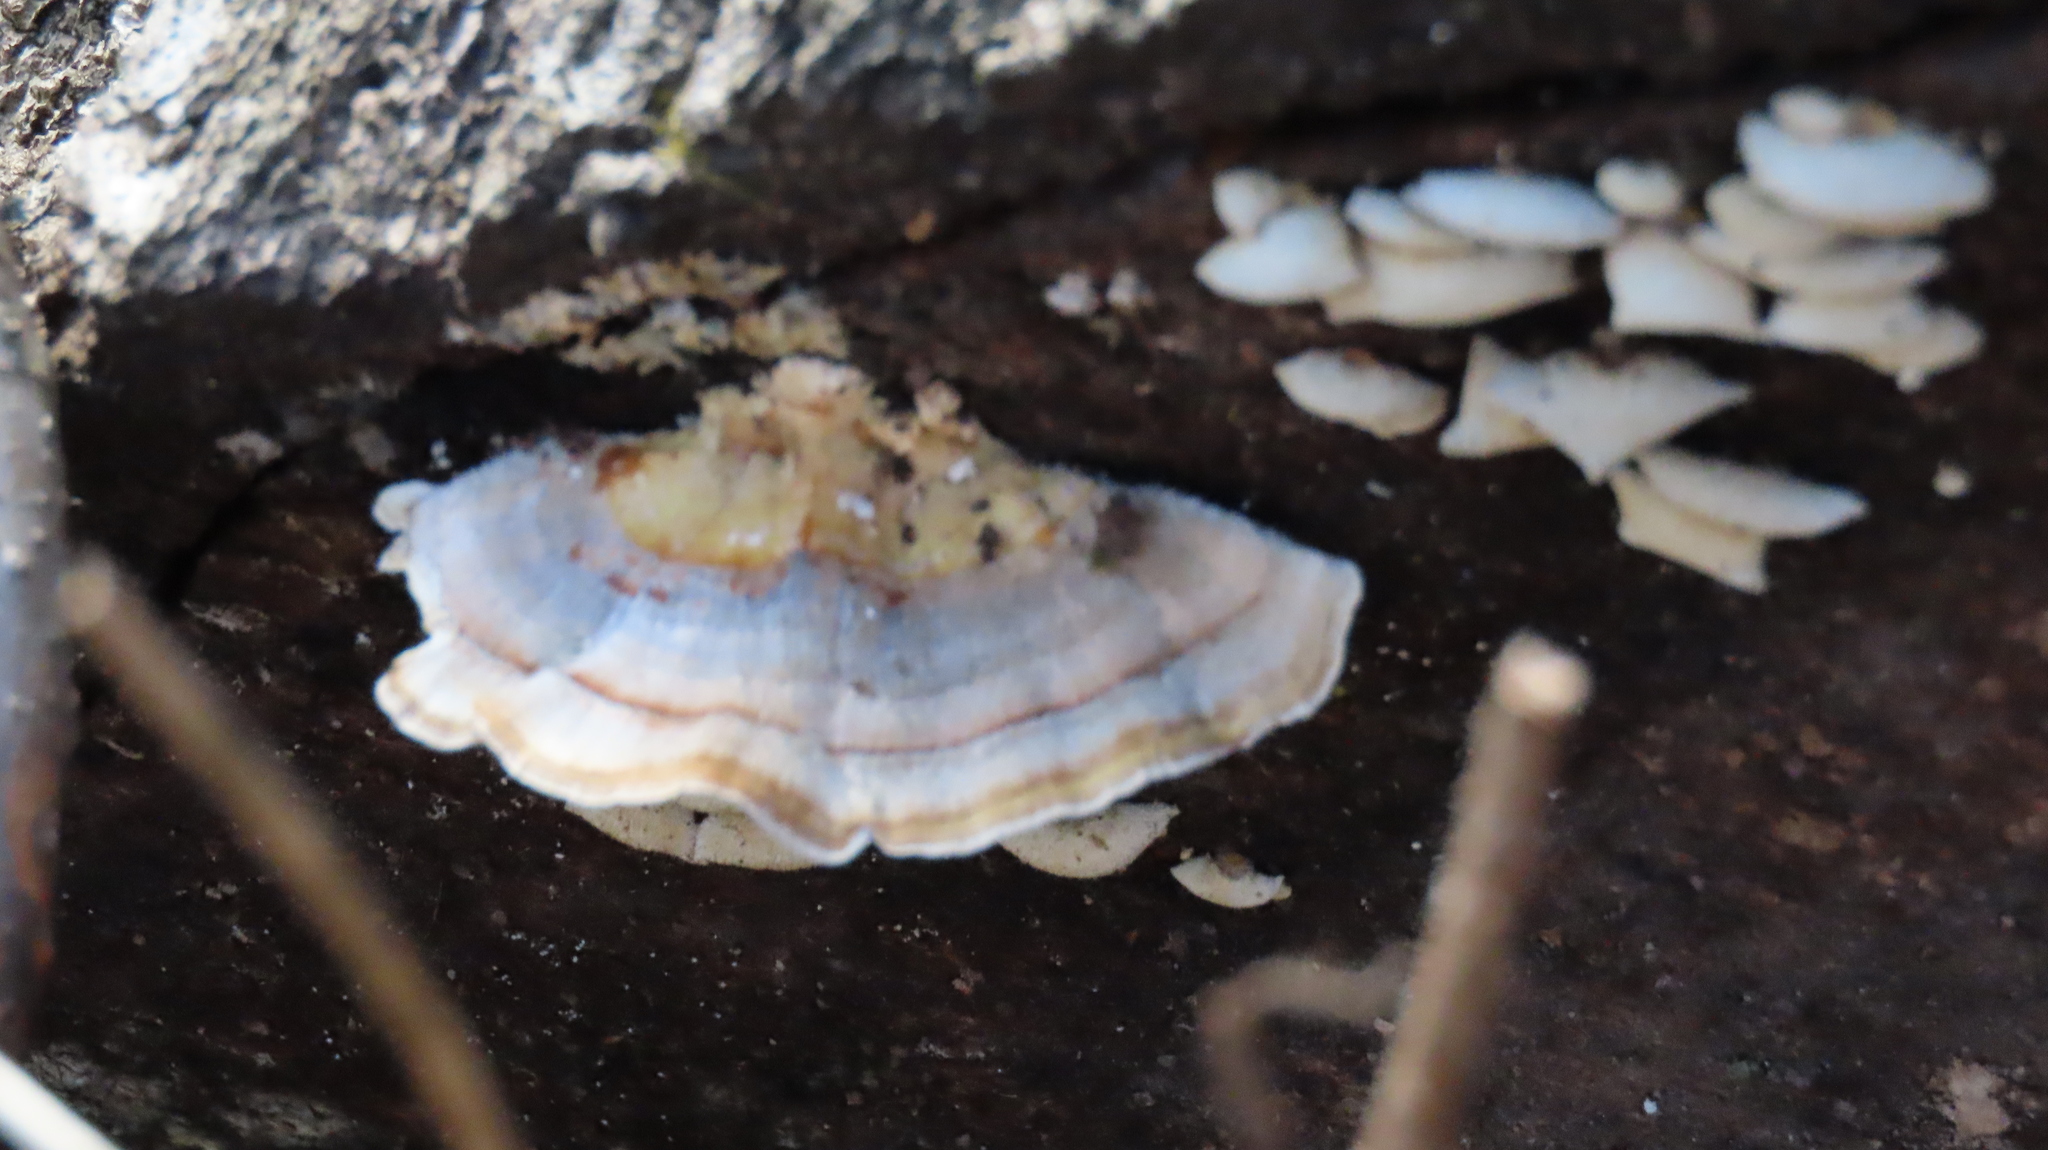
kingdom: Fungi
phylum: Basidiomycota
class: Agaricomycetes
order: Polyporales
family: Polyporaceae
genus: Trametes
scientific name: Trametes versicolor
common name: Turkeytail
